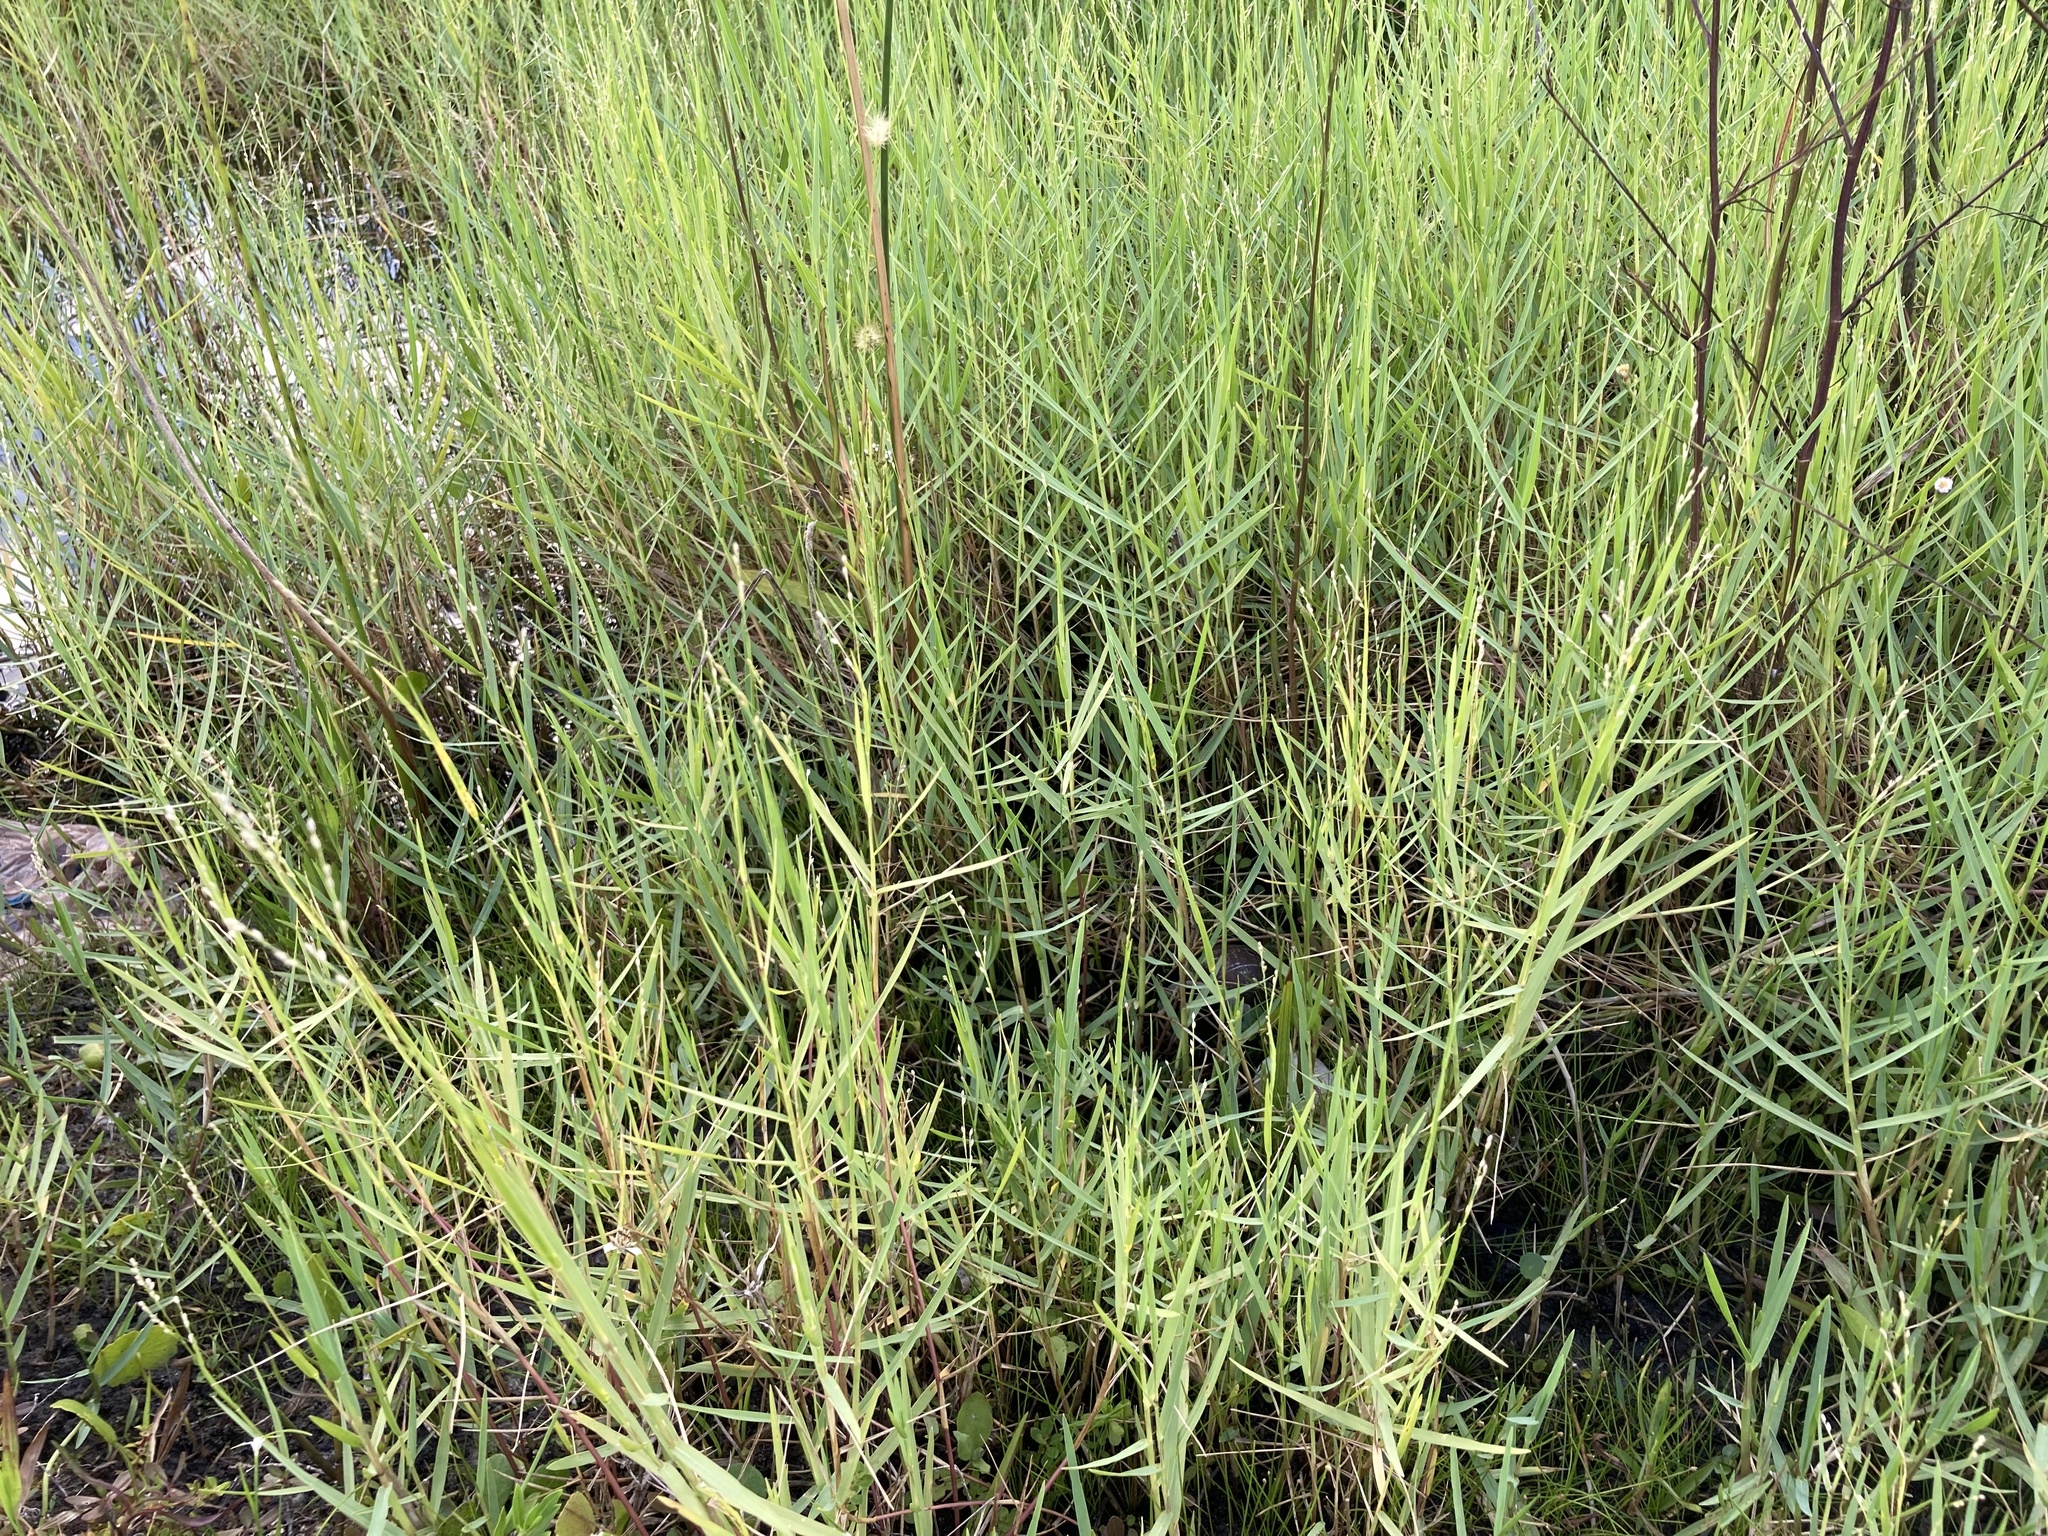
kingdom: Plantae
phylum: Tracheophyta
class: Liliopsida
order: Poales
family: Poaceae
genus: Panicum
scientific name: Panicum repens
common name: Torpedo grass
